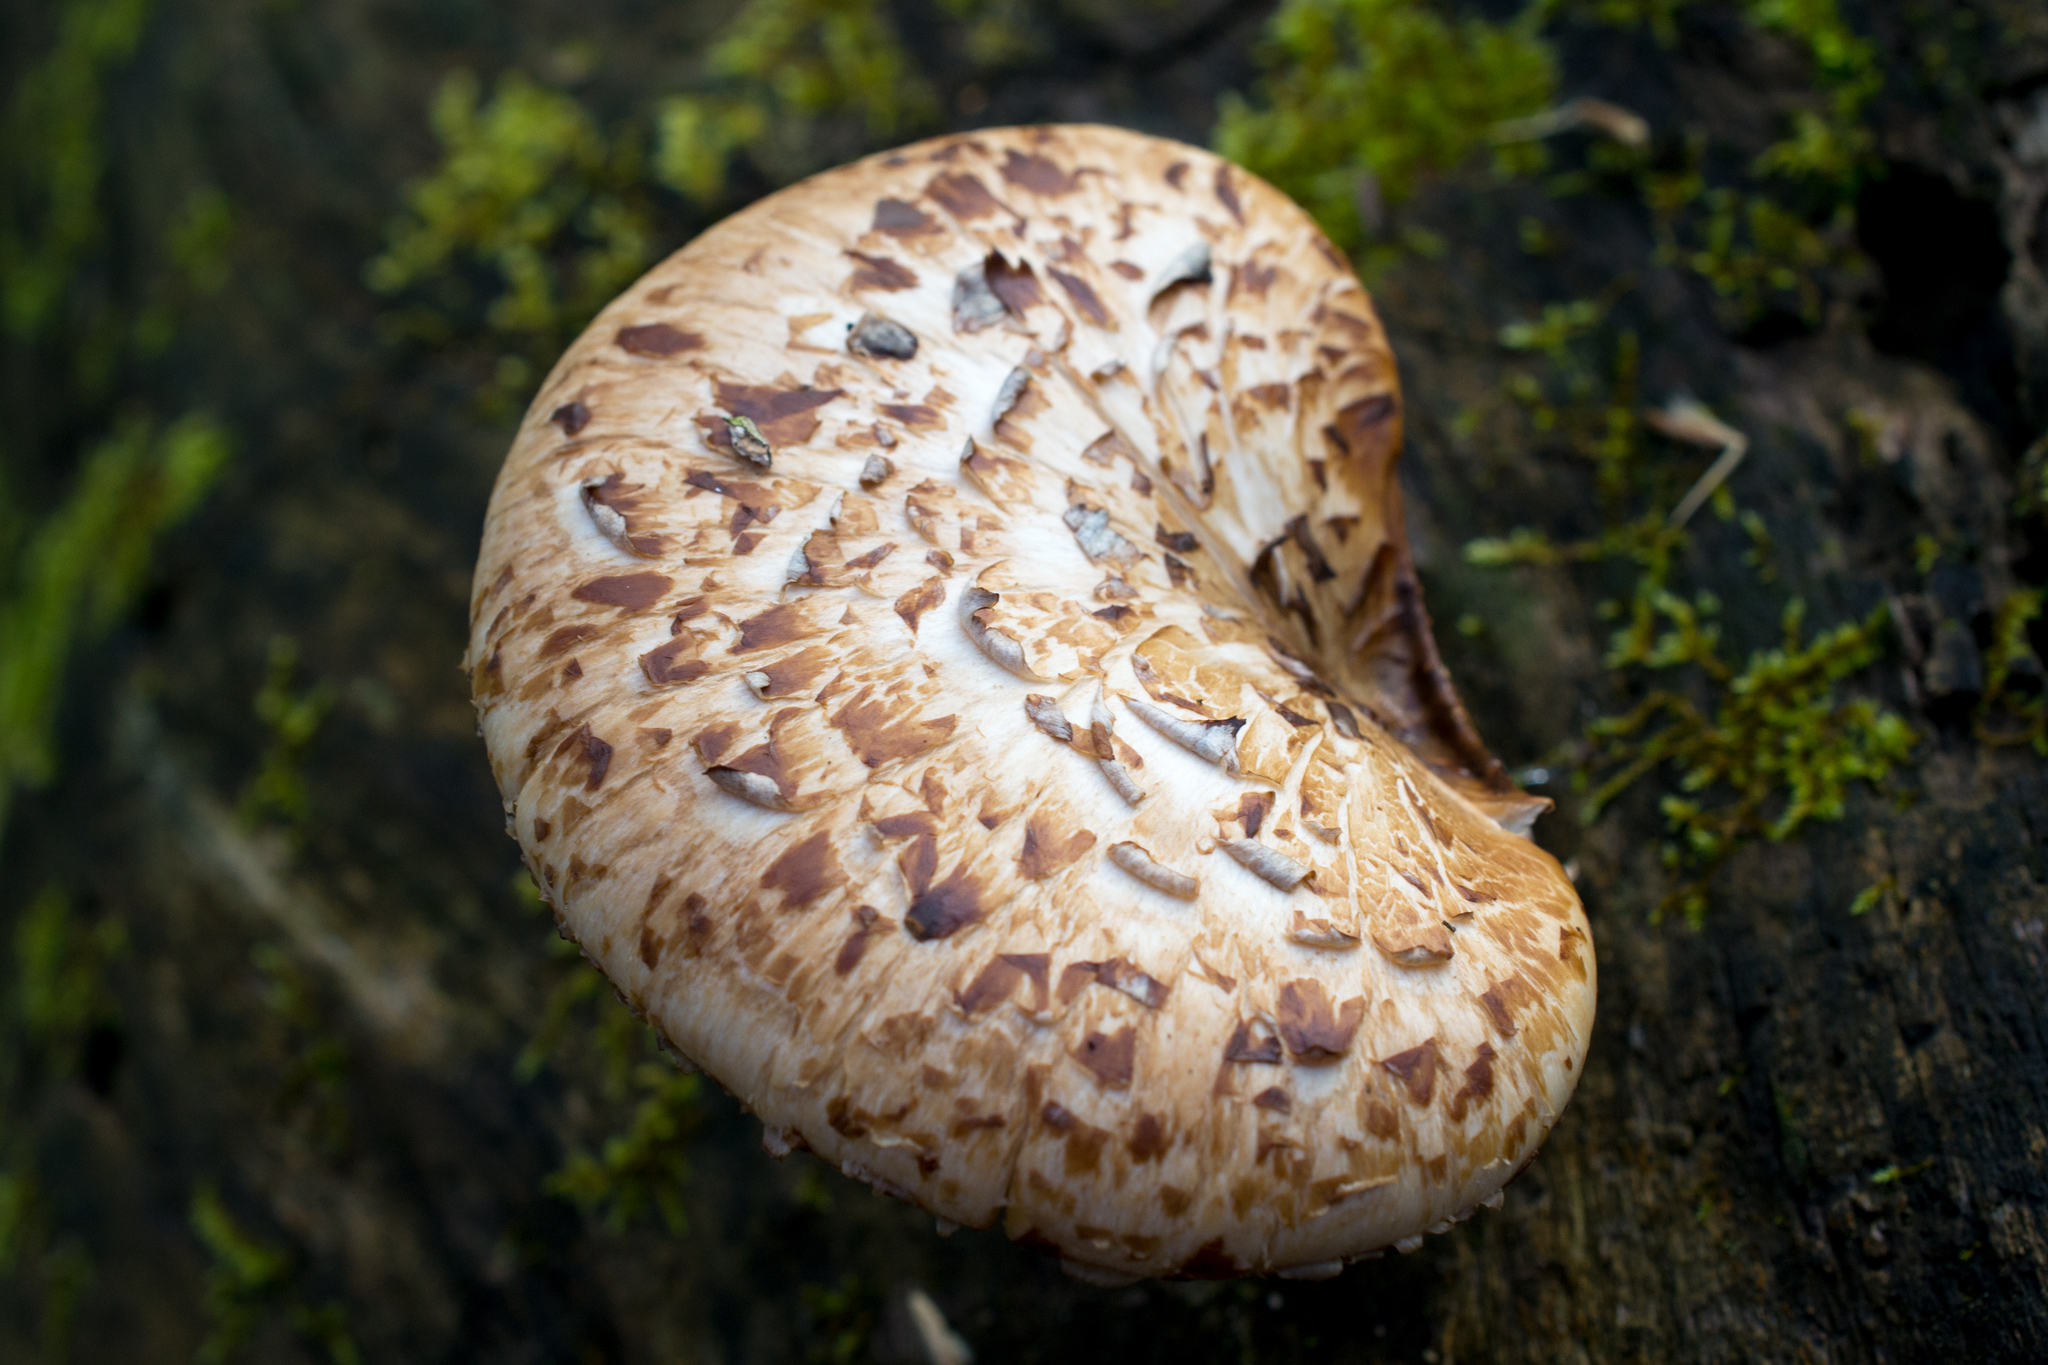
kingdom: Fungi
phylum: Basidiomycota
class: Agaricomycetes
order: Polyporales
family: Polyporaceae
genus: Cerioporus
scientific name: Cerioporus squamosus
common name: Dryad's saddle
